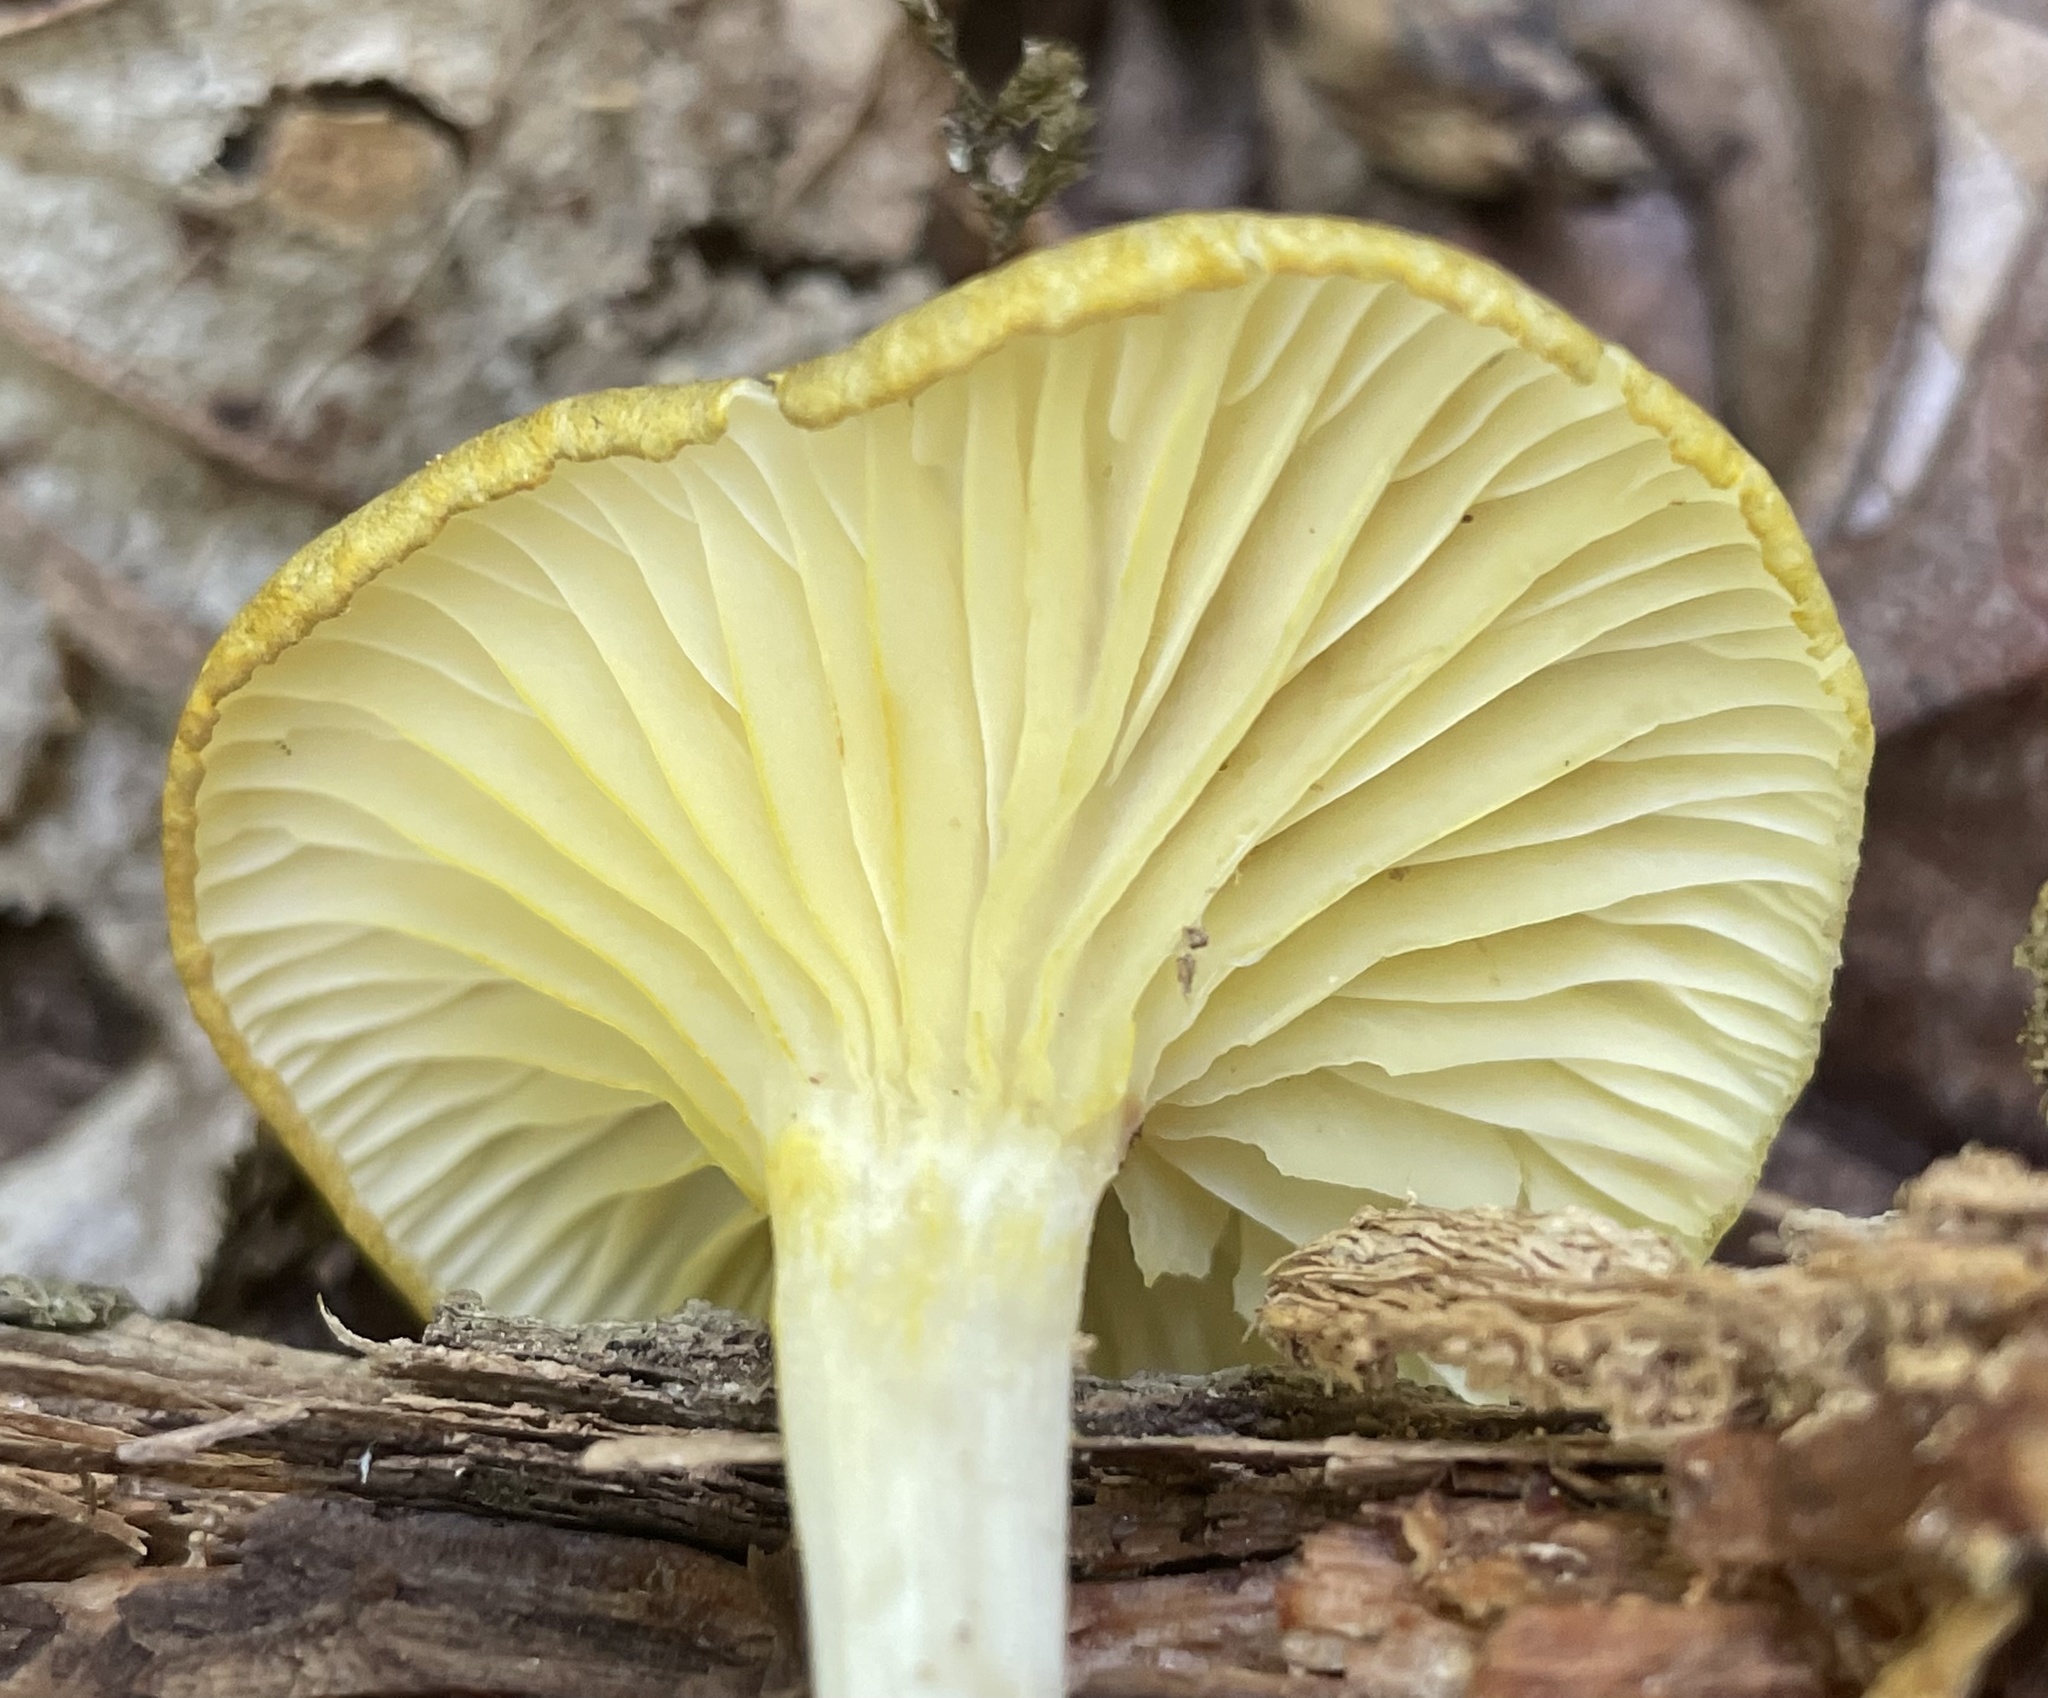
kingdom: Fungi
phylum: Basidiomycota
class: Agaricomycetes
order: Agaricales
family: Marasmiaceae
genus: Gerronema
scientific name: Gerronema strombodes
